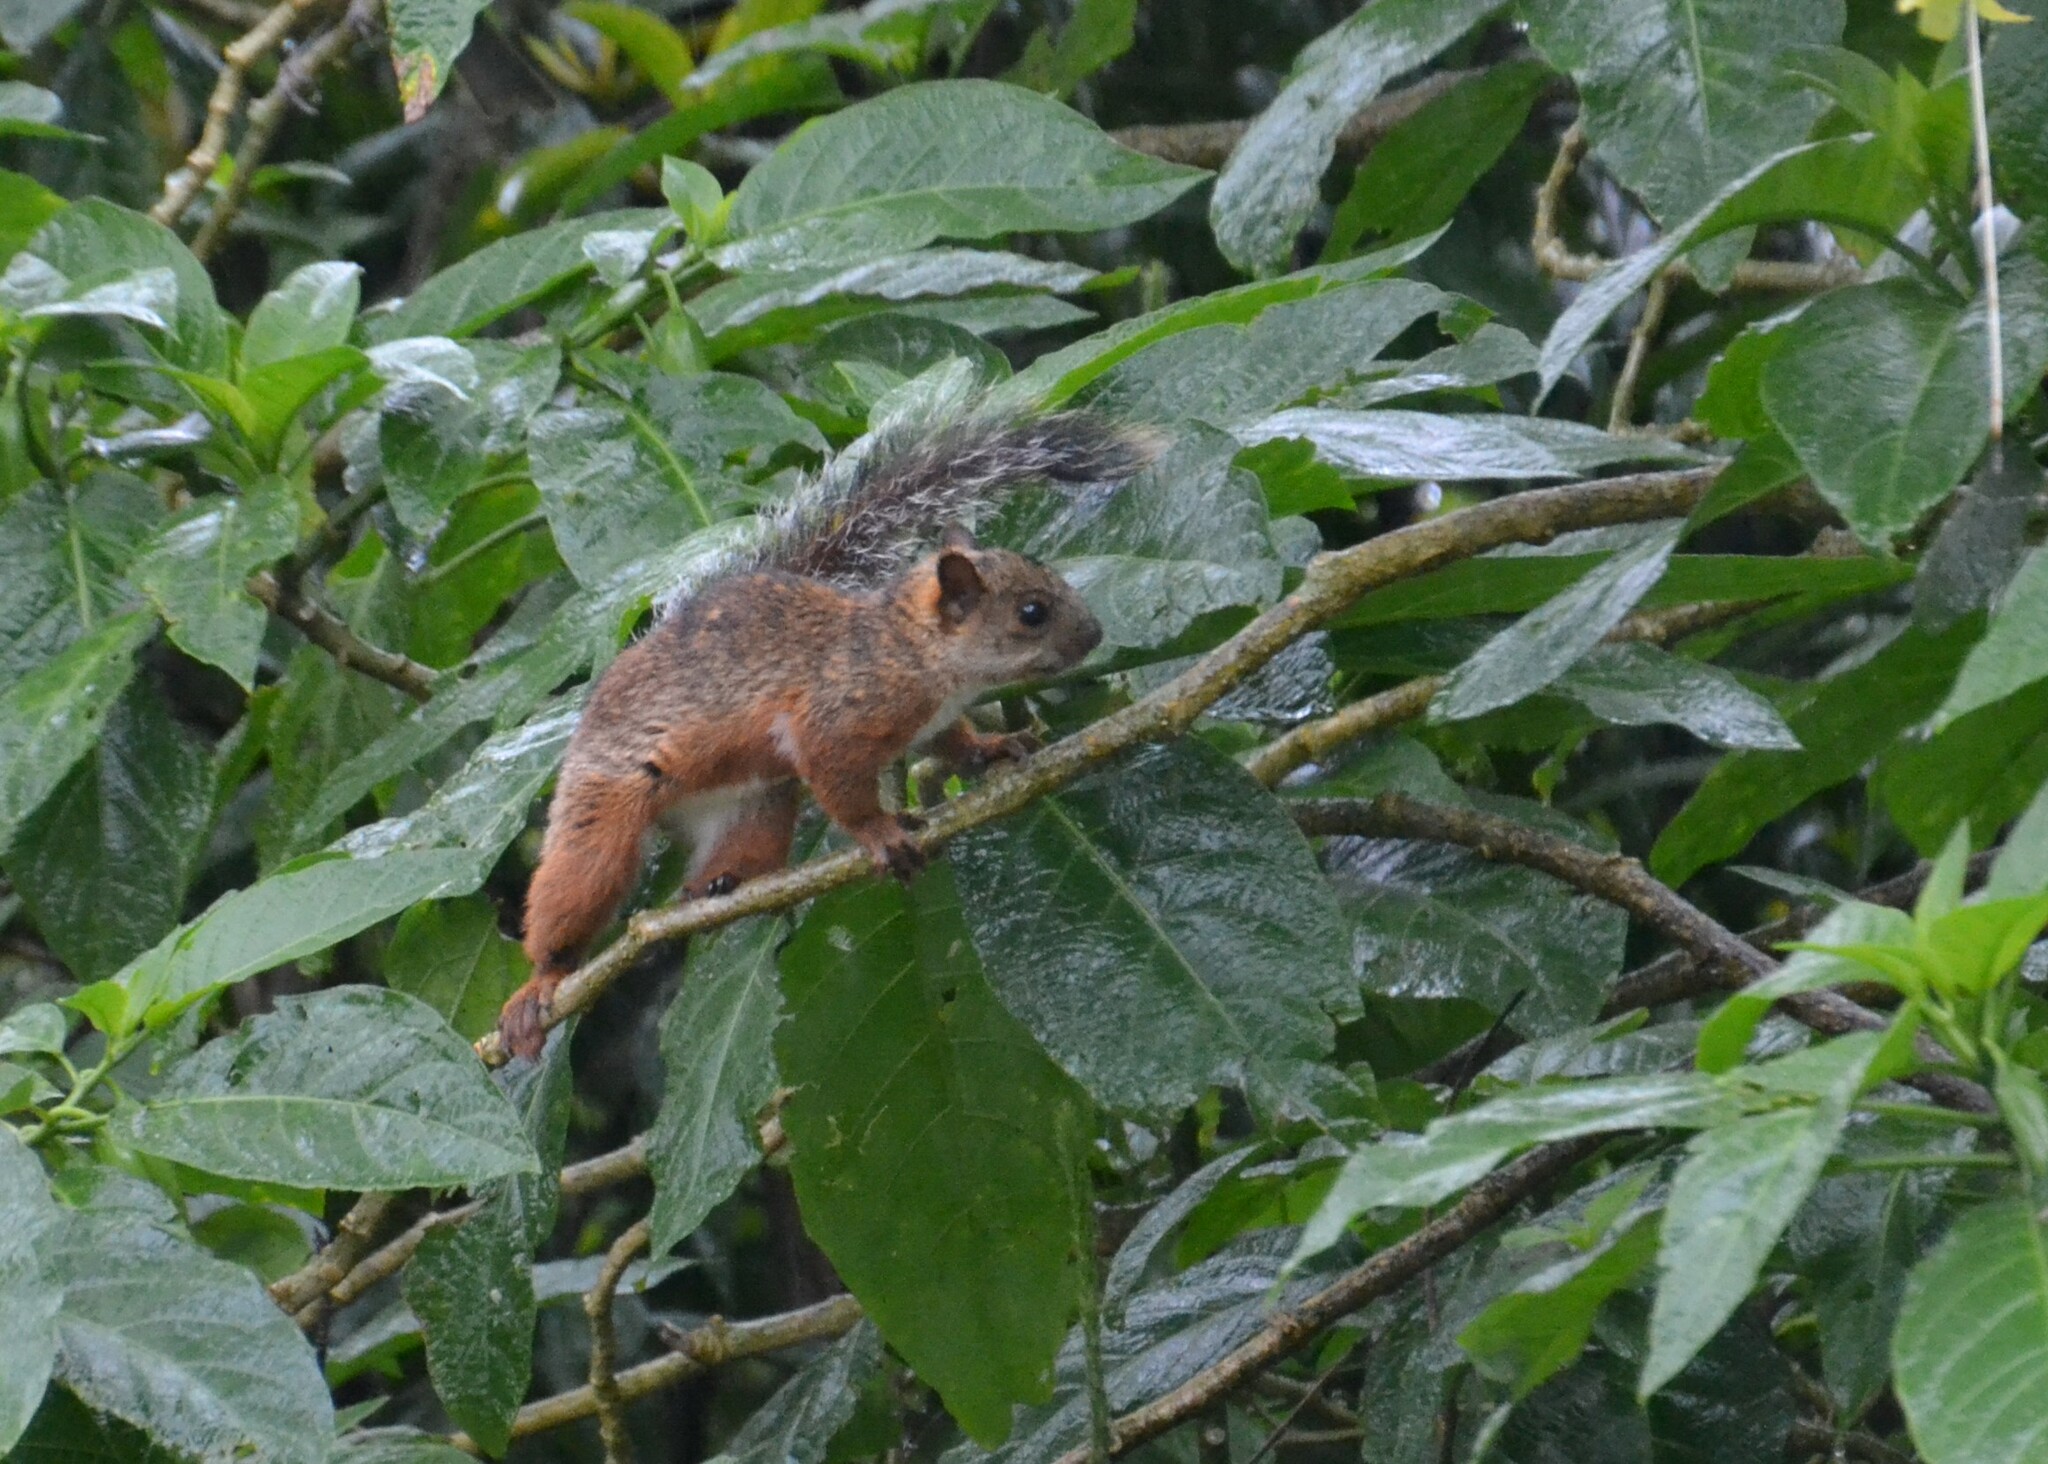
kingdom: Animalia
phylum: Chordata
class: Mammalia
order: Rodentia
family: Sciuridae
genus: Sciurus
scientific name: Sciurus variegatoides
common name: Variegated squirrel
